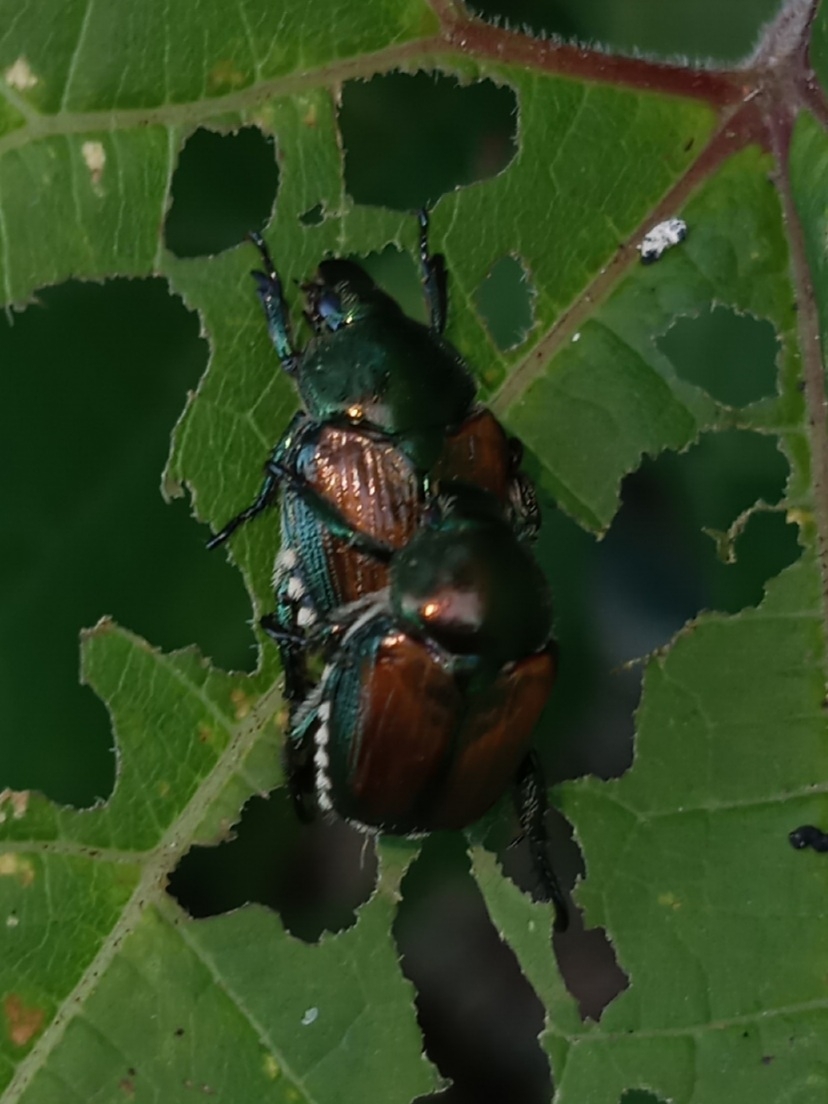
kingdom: Animalia
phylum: Arthropoda
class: Insecta
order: Coleoptera
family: Scarabaeidae
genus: Popillia
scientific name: Popillia japonica
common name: Japanese beetle
